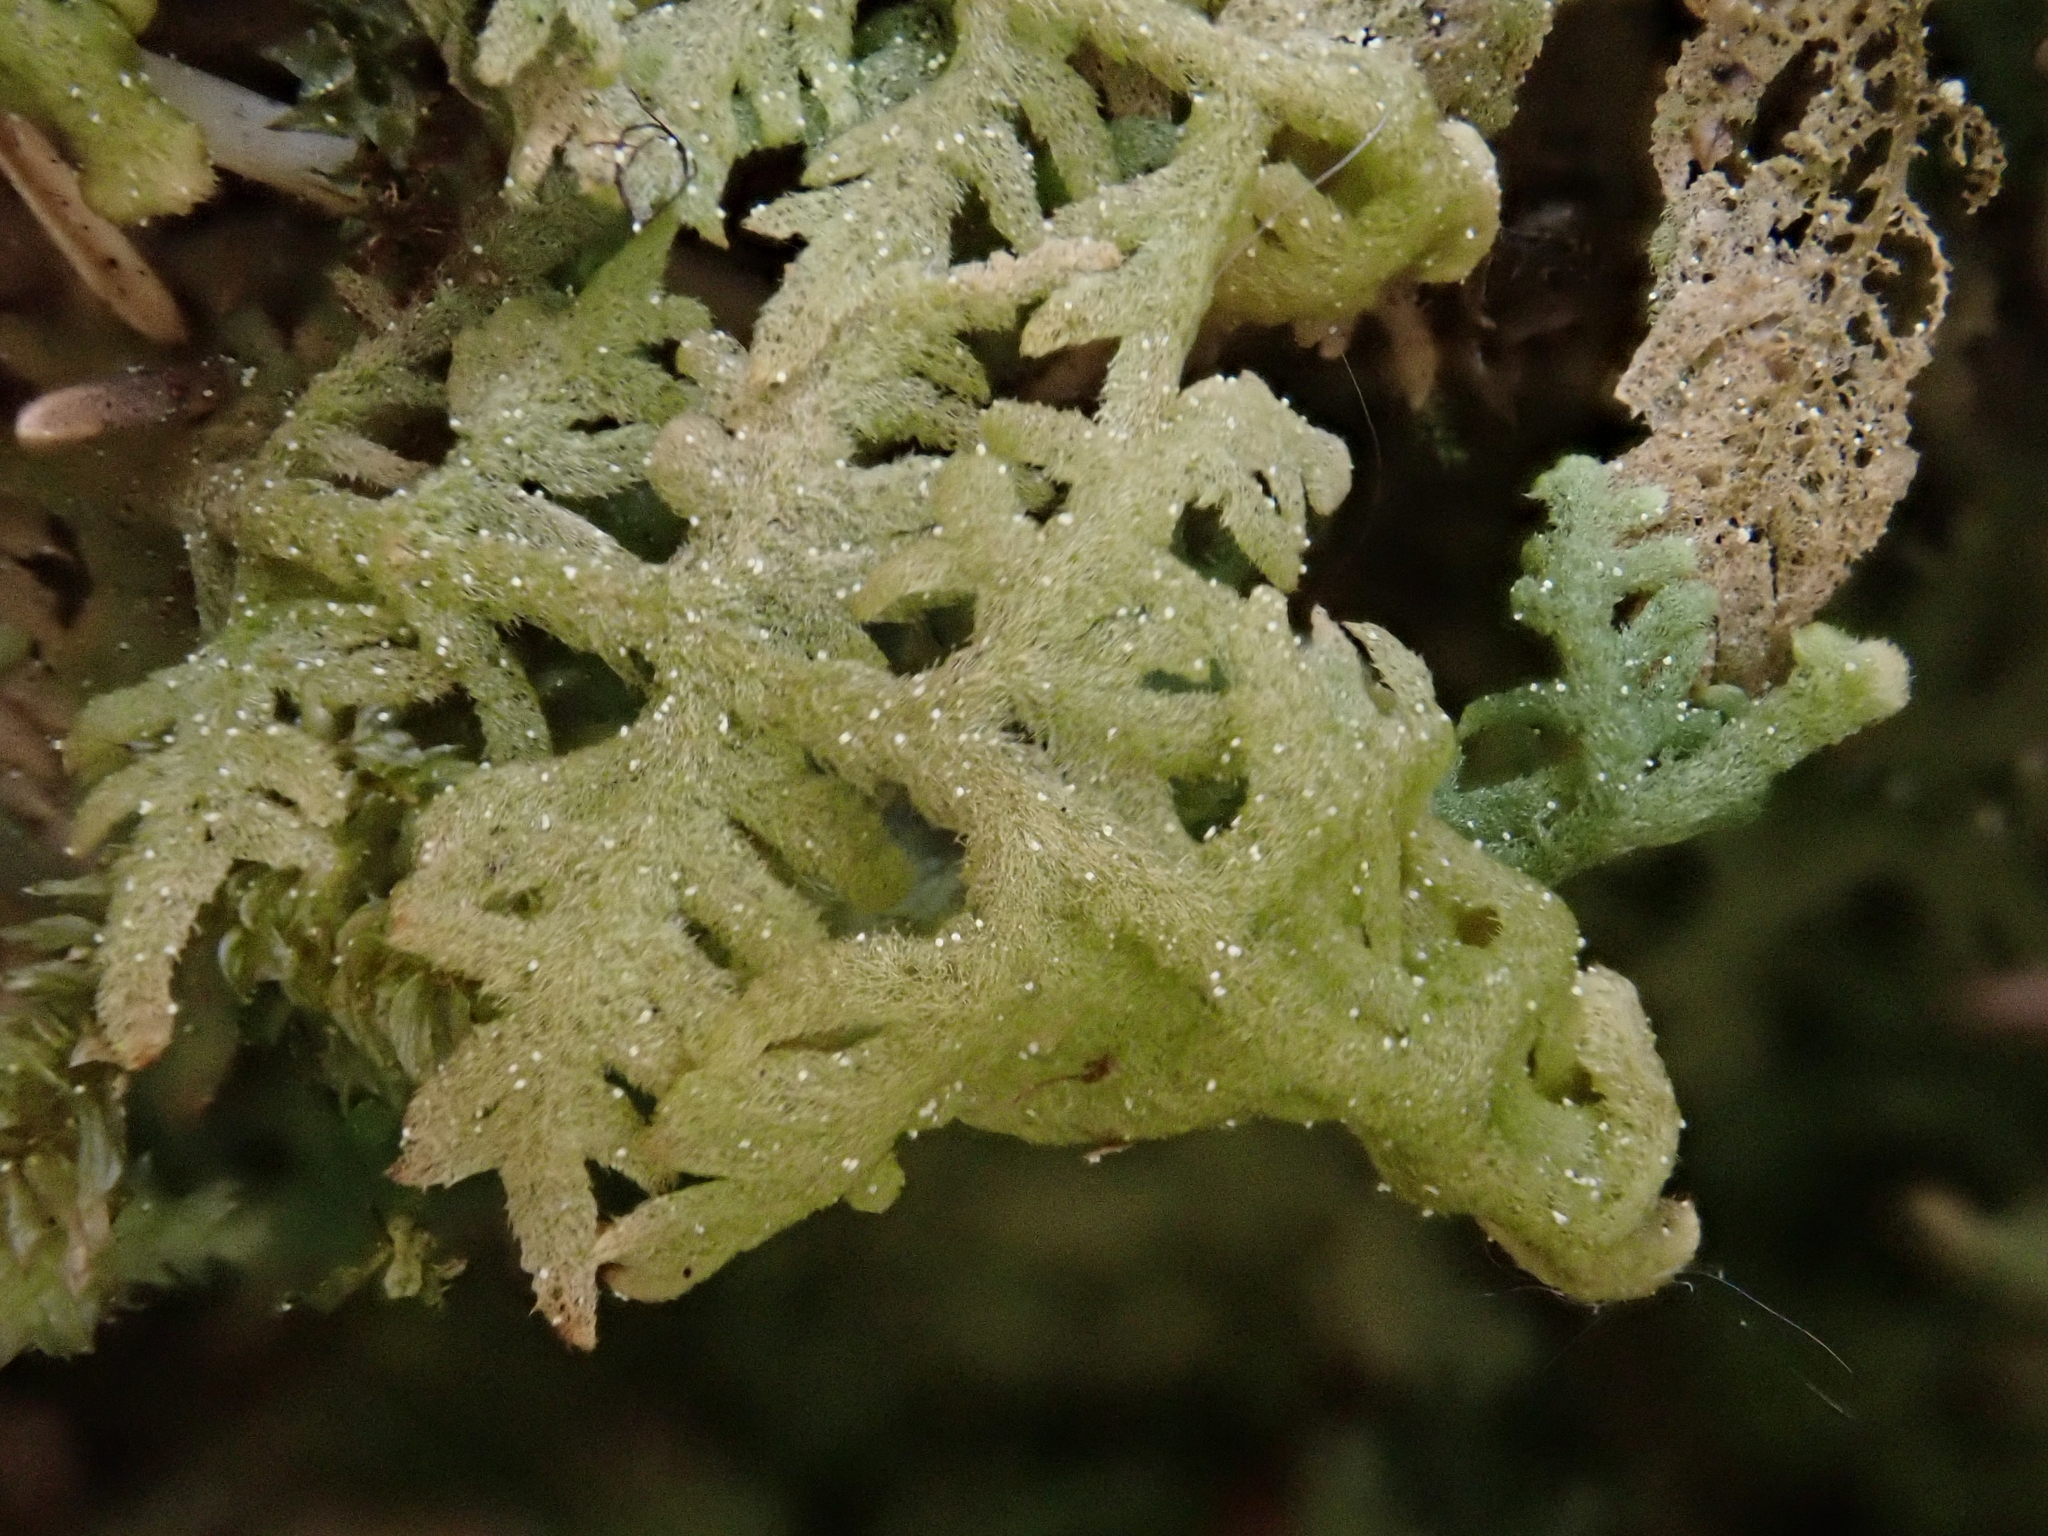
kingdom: Plantae
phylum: Marchantiophyta
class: Jungermanniopsida
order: Jungermanniales
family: Trichocoleaceae
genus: Trichocolea
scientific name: Trichocolea tomentella
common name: Woolly liverwort
